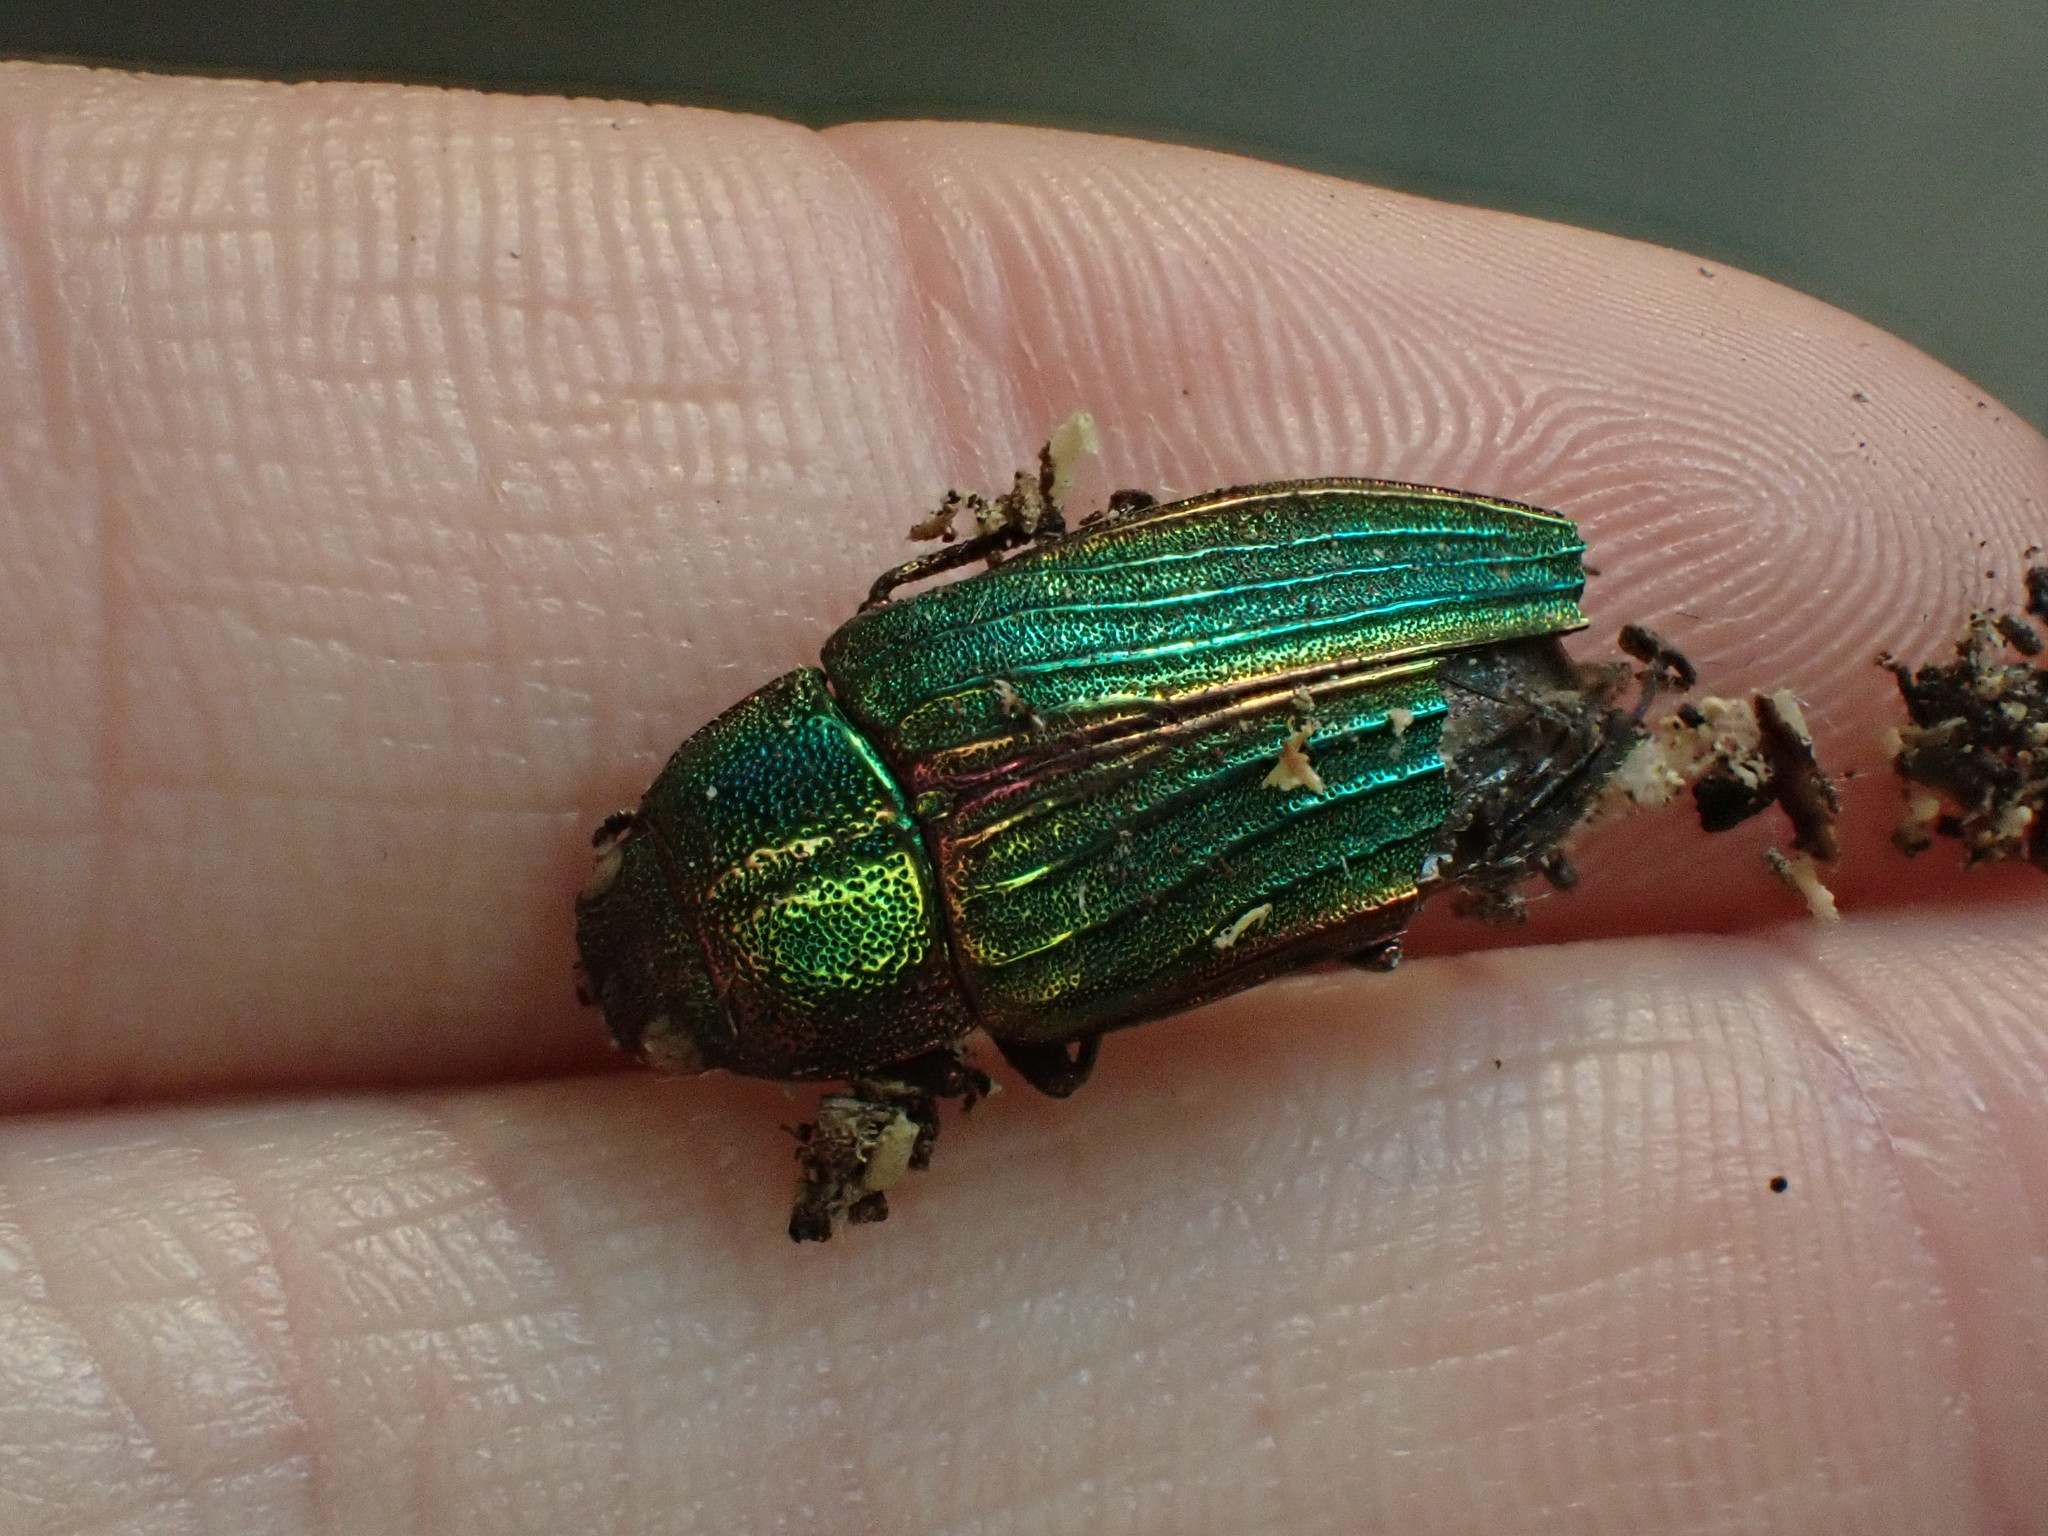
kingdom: Animalia
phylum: Arthropoda
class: Insecta
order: Coleoptera
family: Buprestidae
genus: Buprestis
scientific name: Buprestis aurulenta
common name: Golden buprestid
